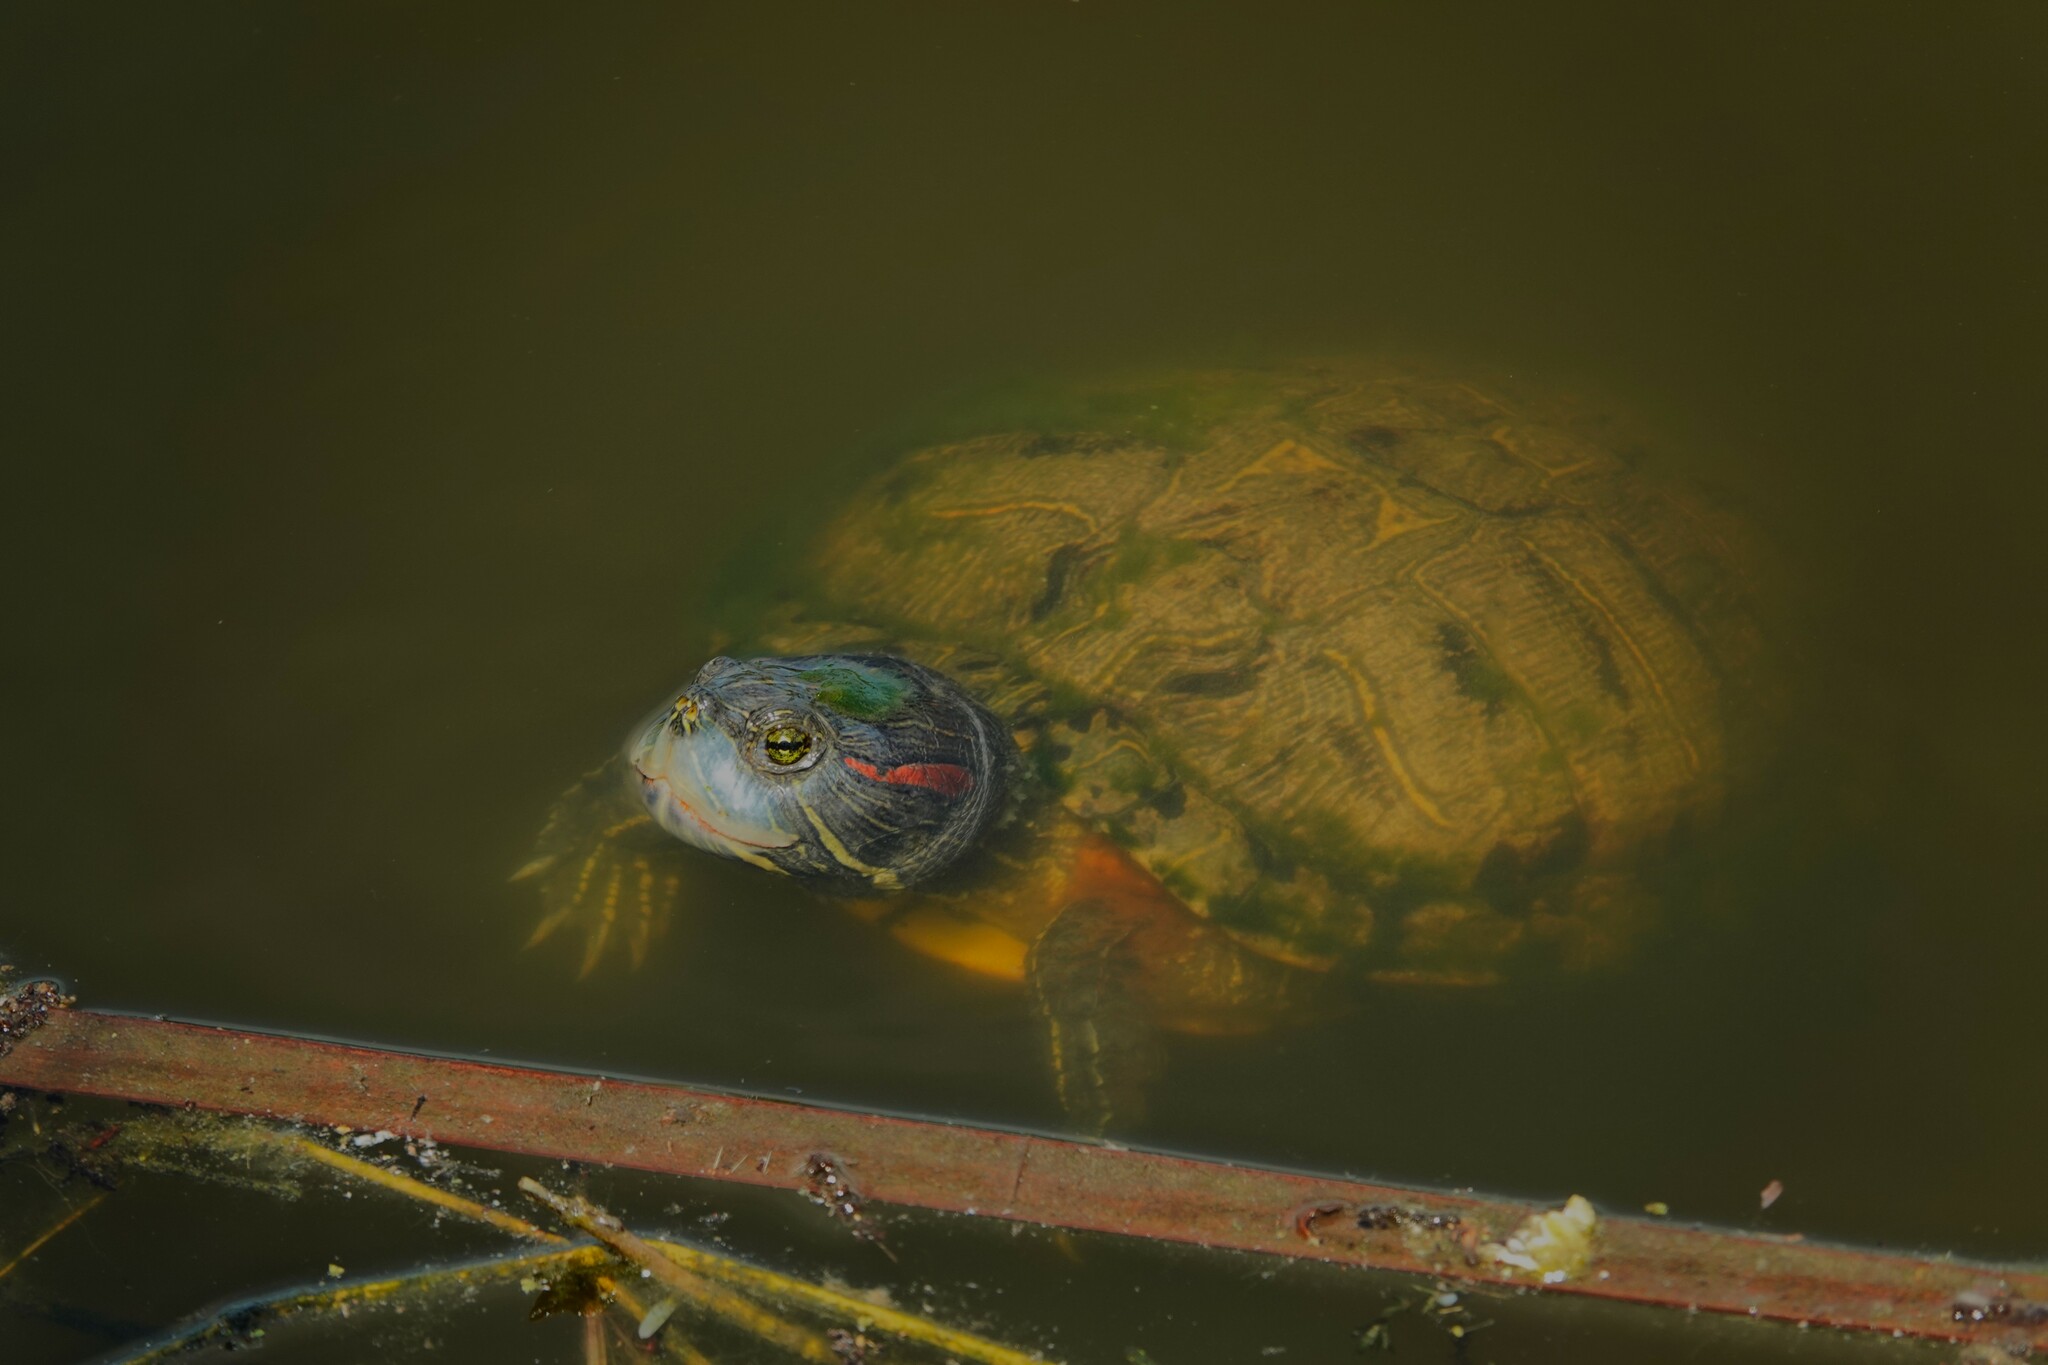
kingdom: Animalia
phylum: Chordata
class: Testudines
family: Emydidae
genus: Trachemys
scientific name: Trachemys scripta
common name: Slider
